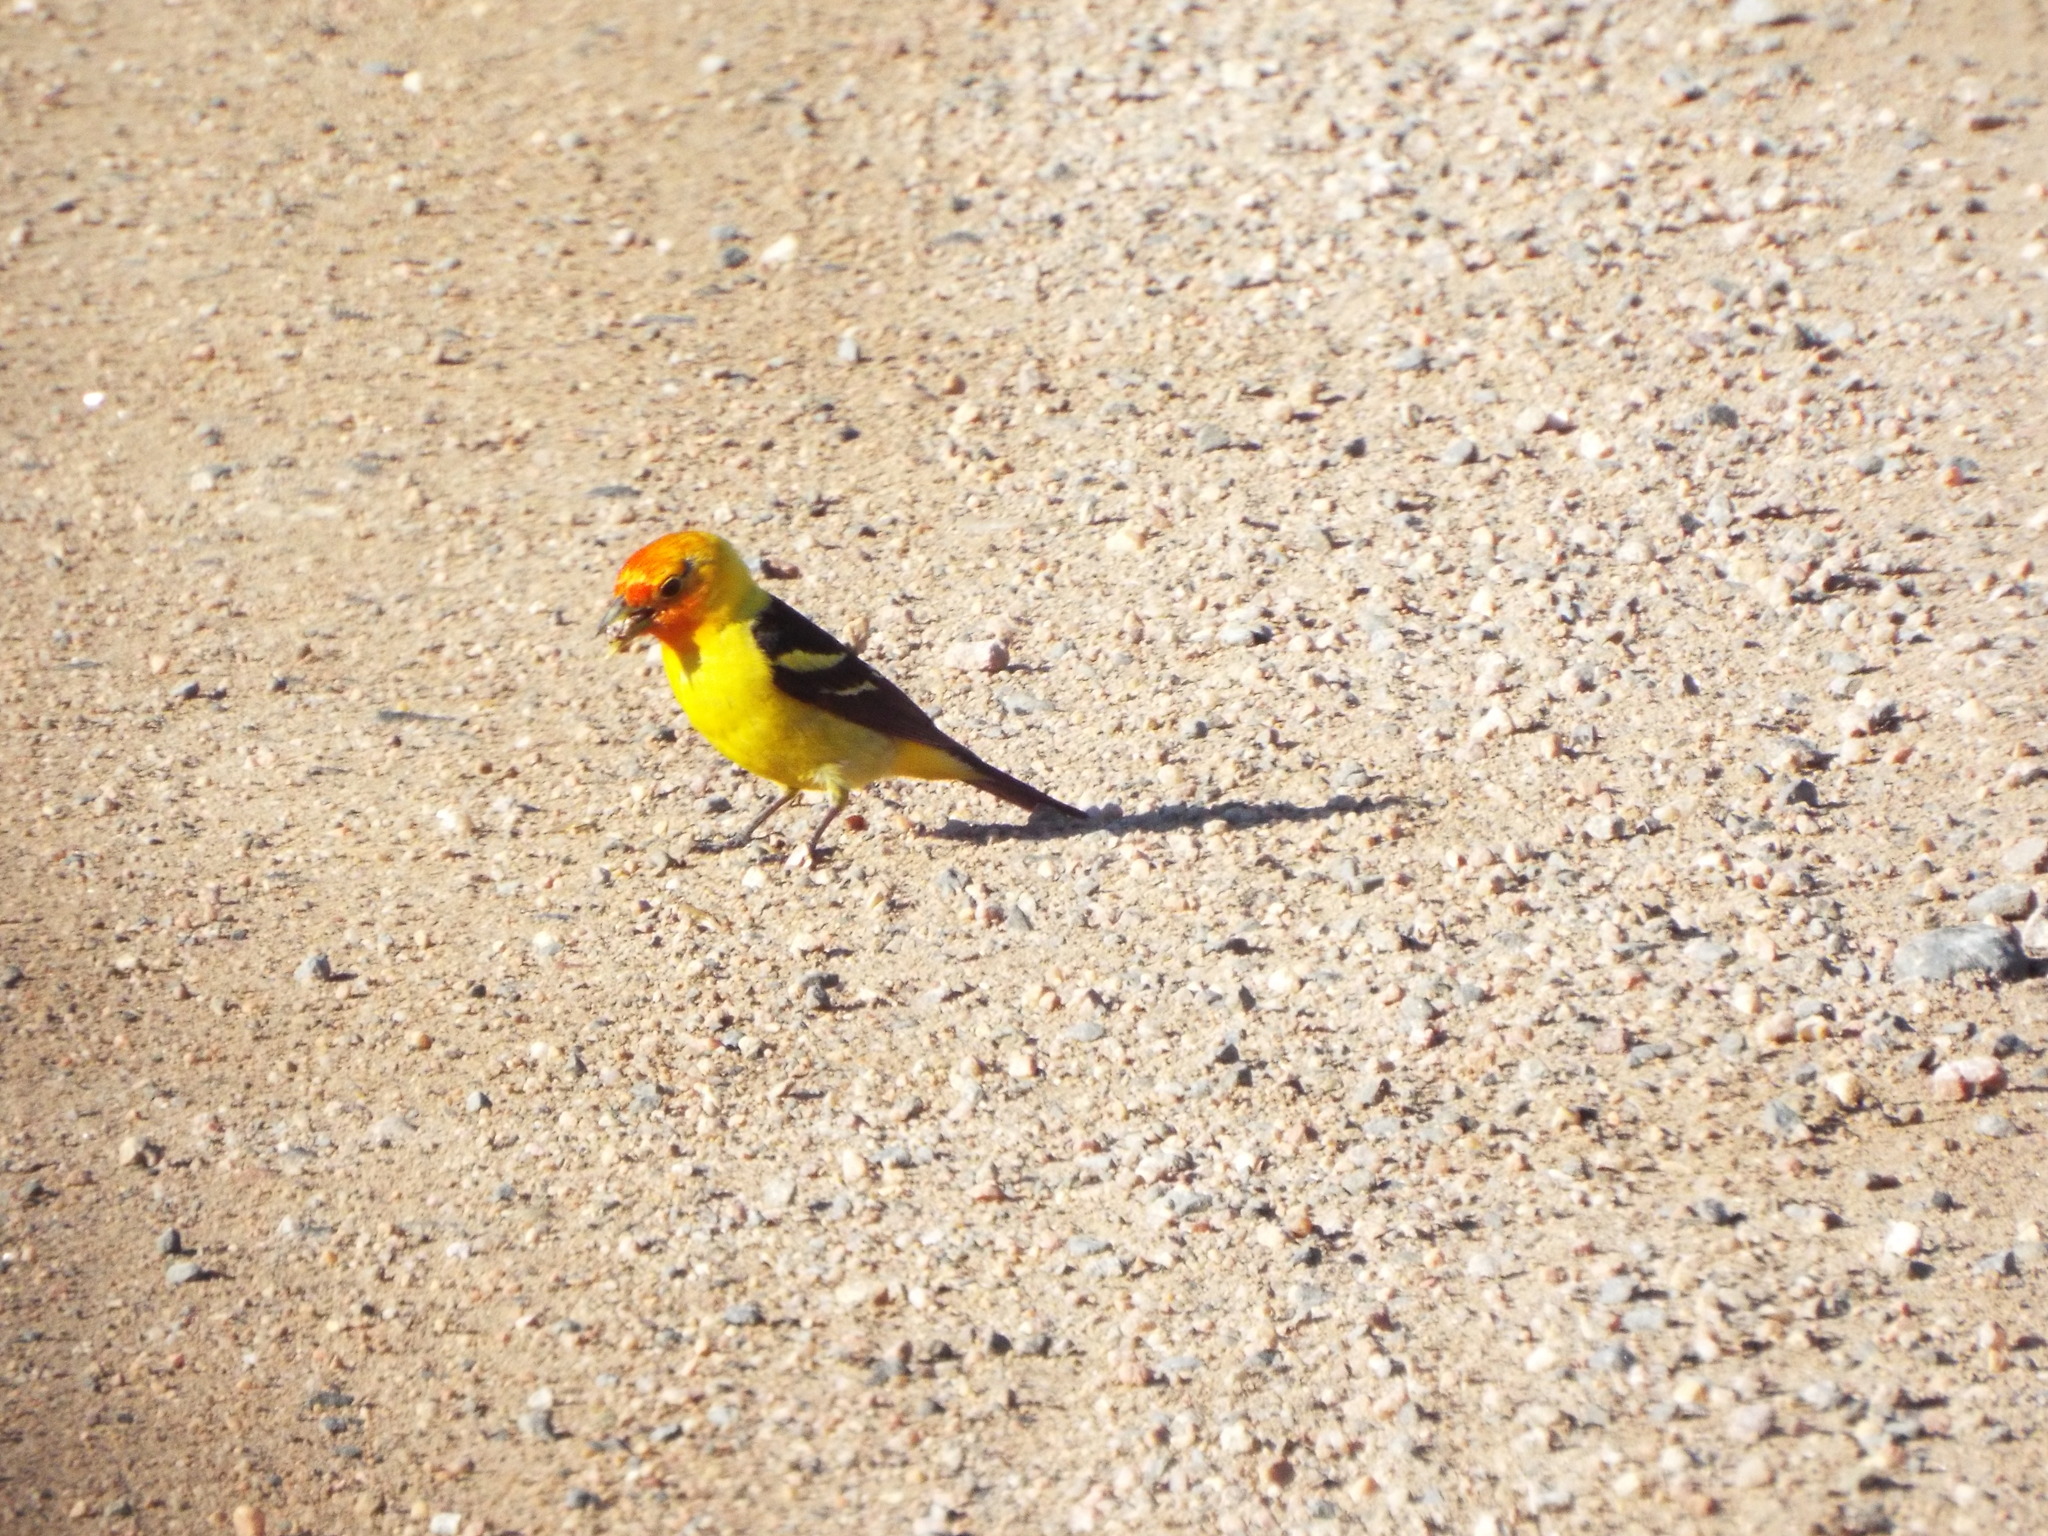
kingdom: Animalia
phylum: Chordata
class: Aves
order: Passeriformes
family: Cardinalidae
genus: Piranga
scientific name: Piranga ludoviciana
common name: Western tanager
